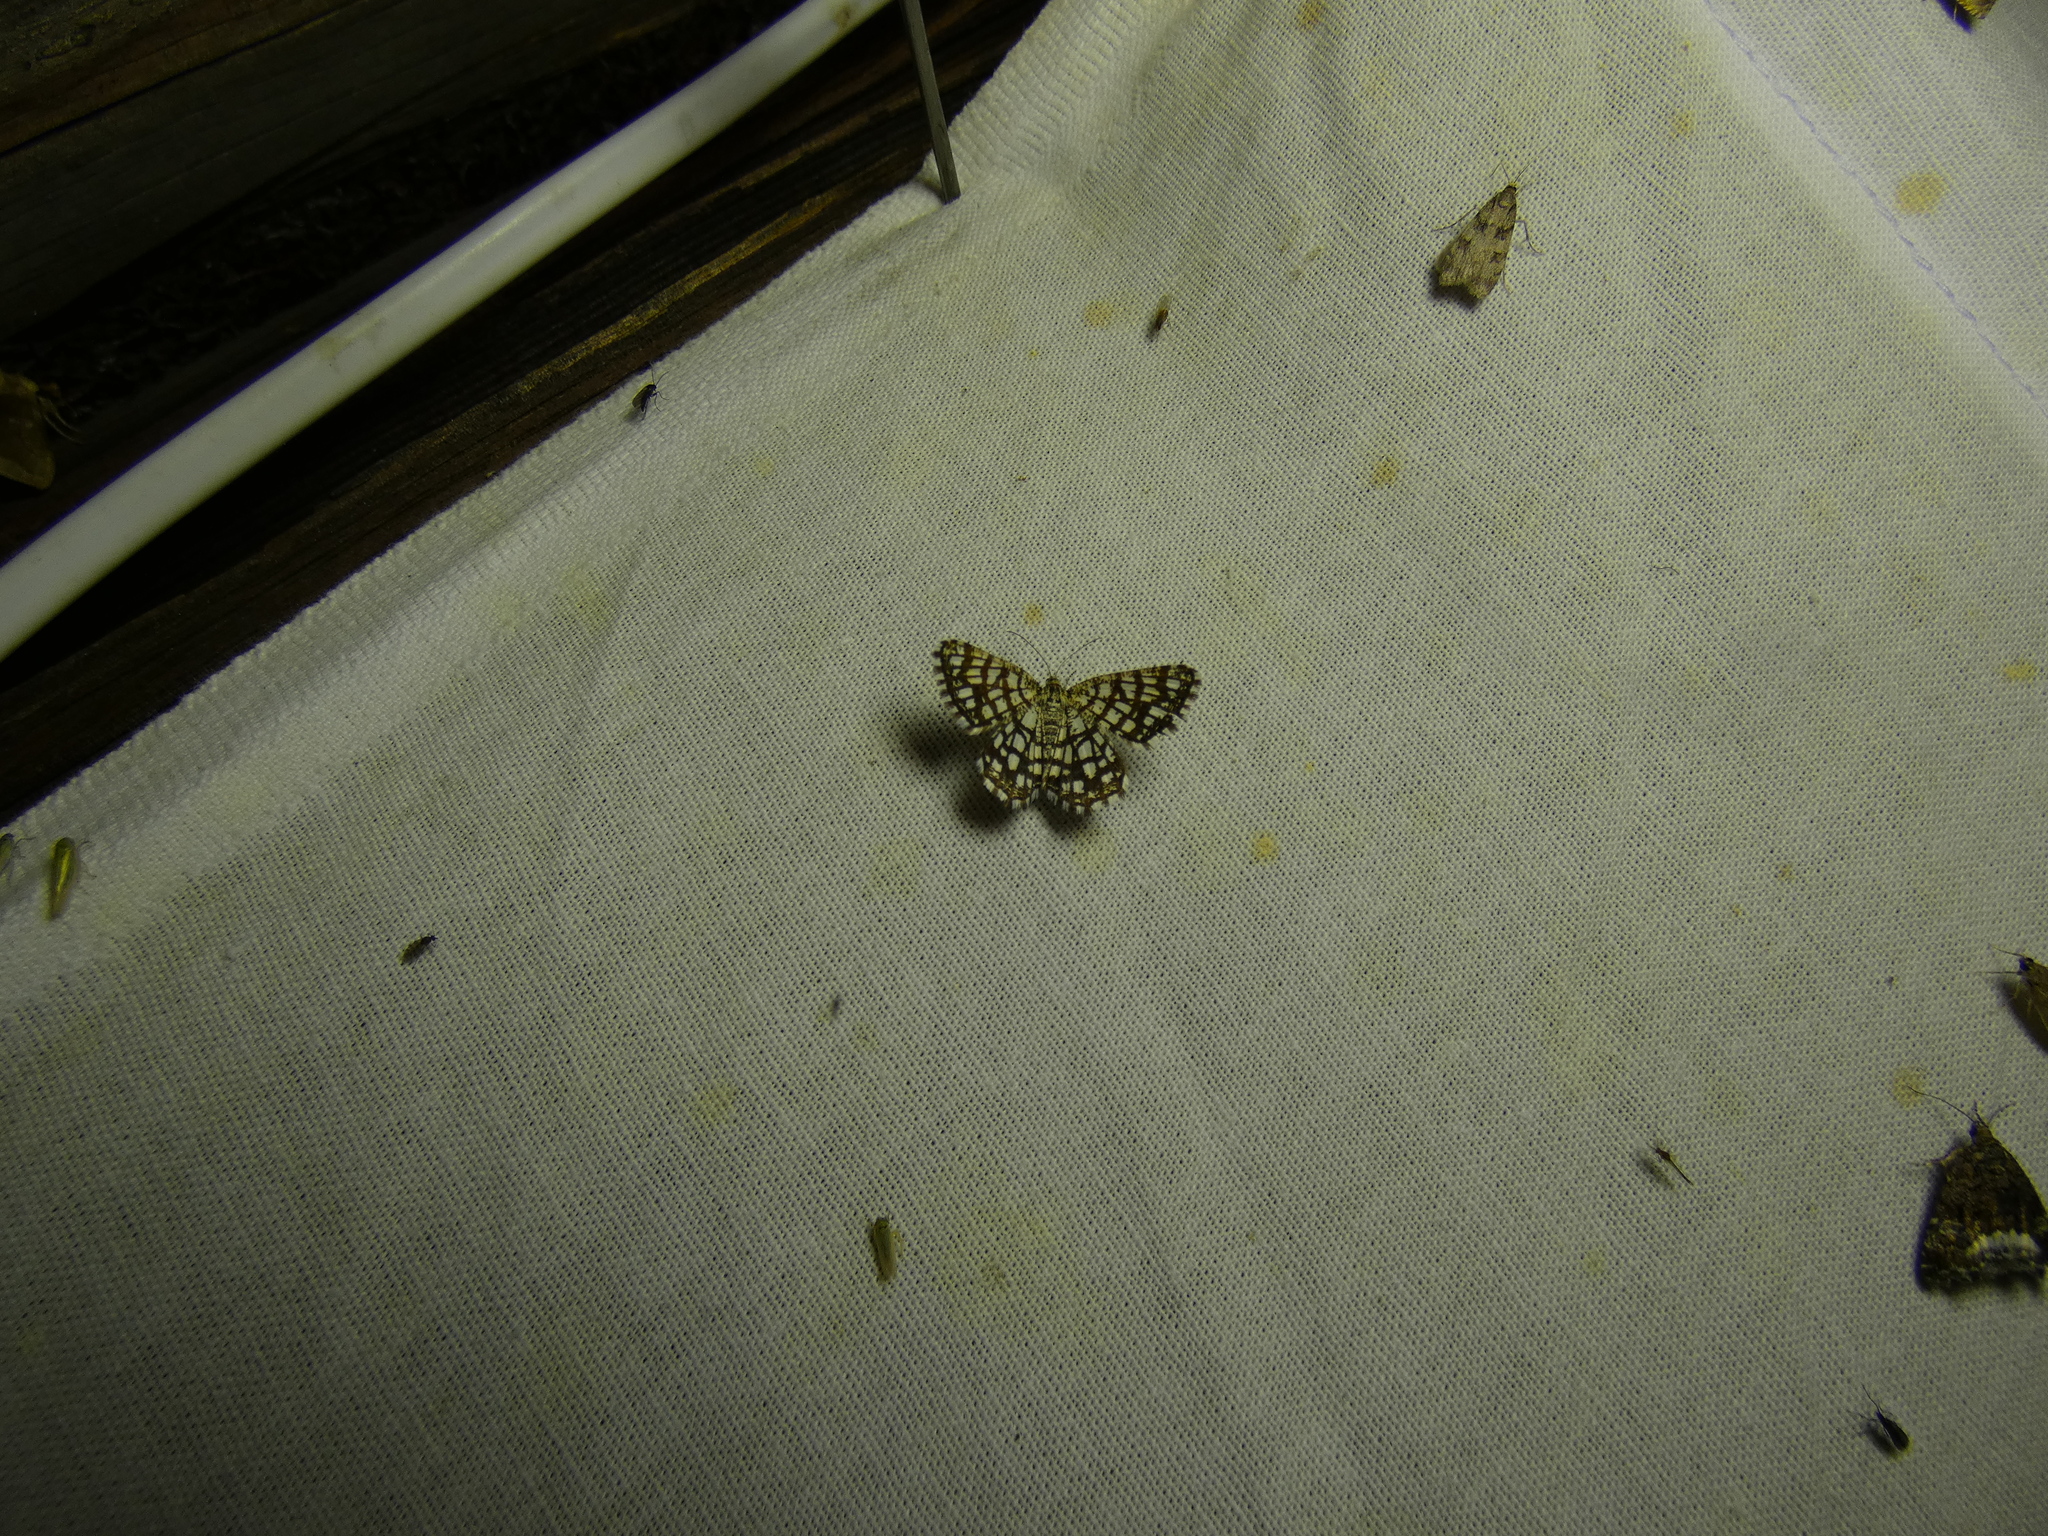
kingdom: Animalia
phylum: Arthropoda
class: Insecta
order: Lepidoptera
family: Geometridae
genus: Chiasmia
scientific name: Chiasmia clathrata
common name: Latticed heath
